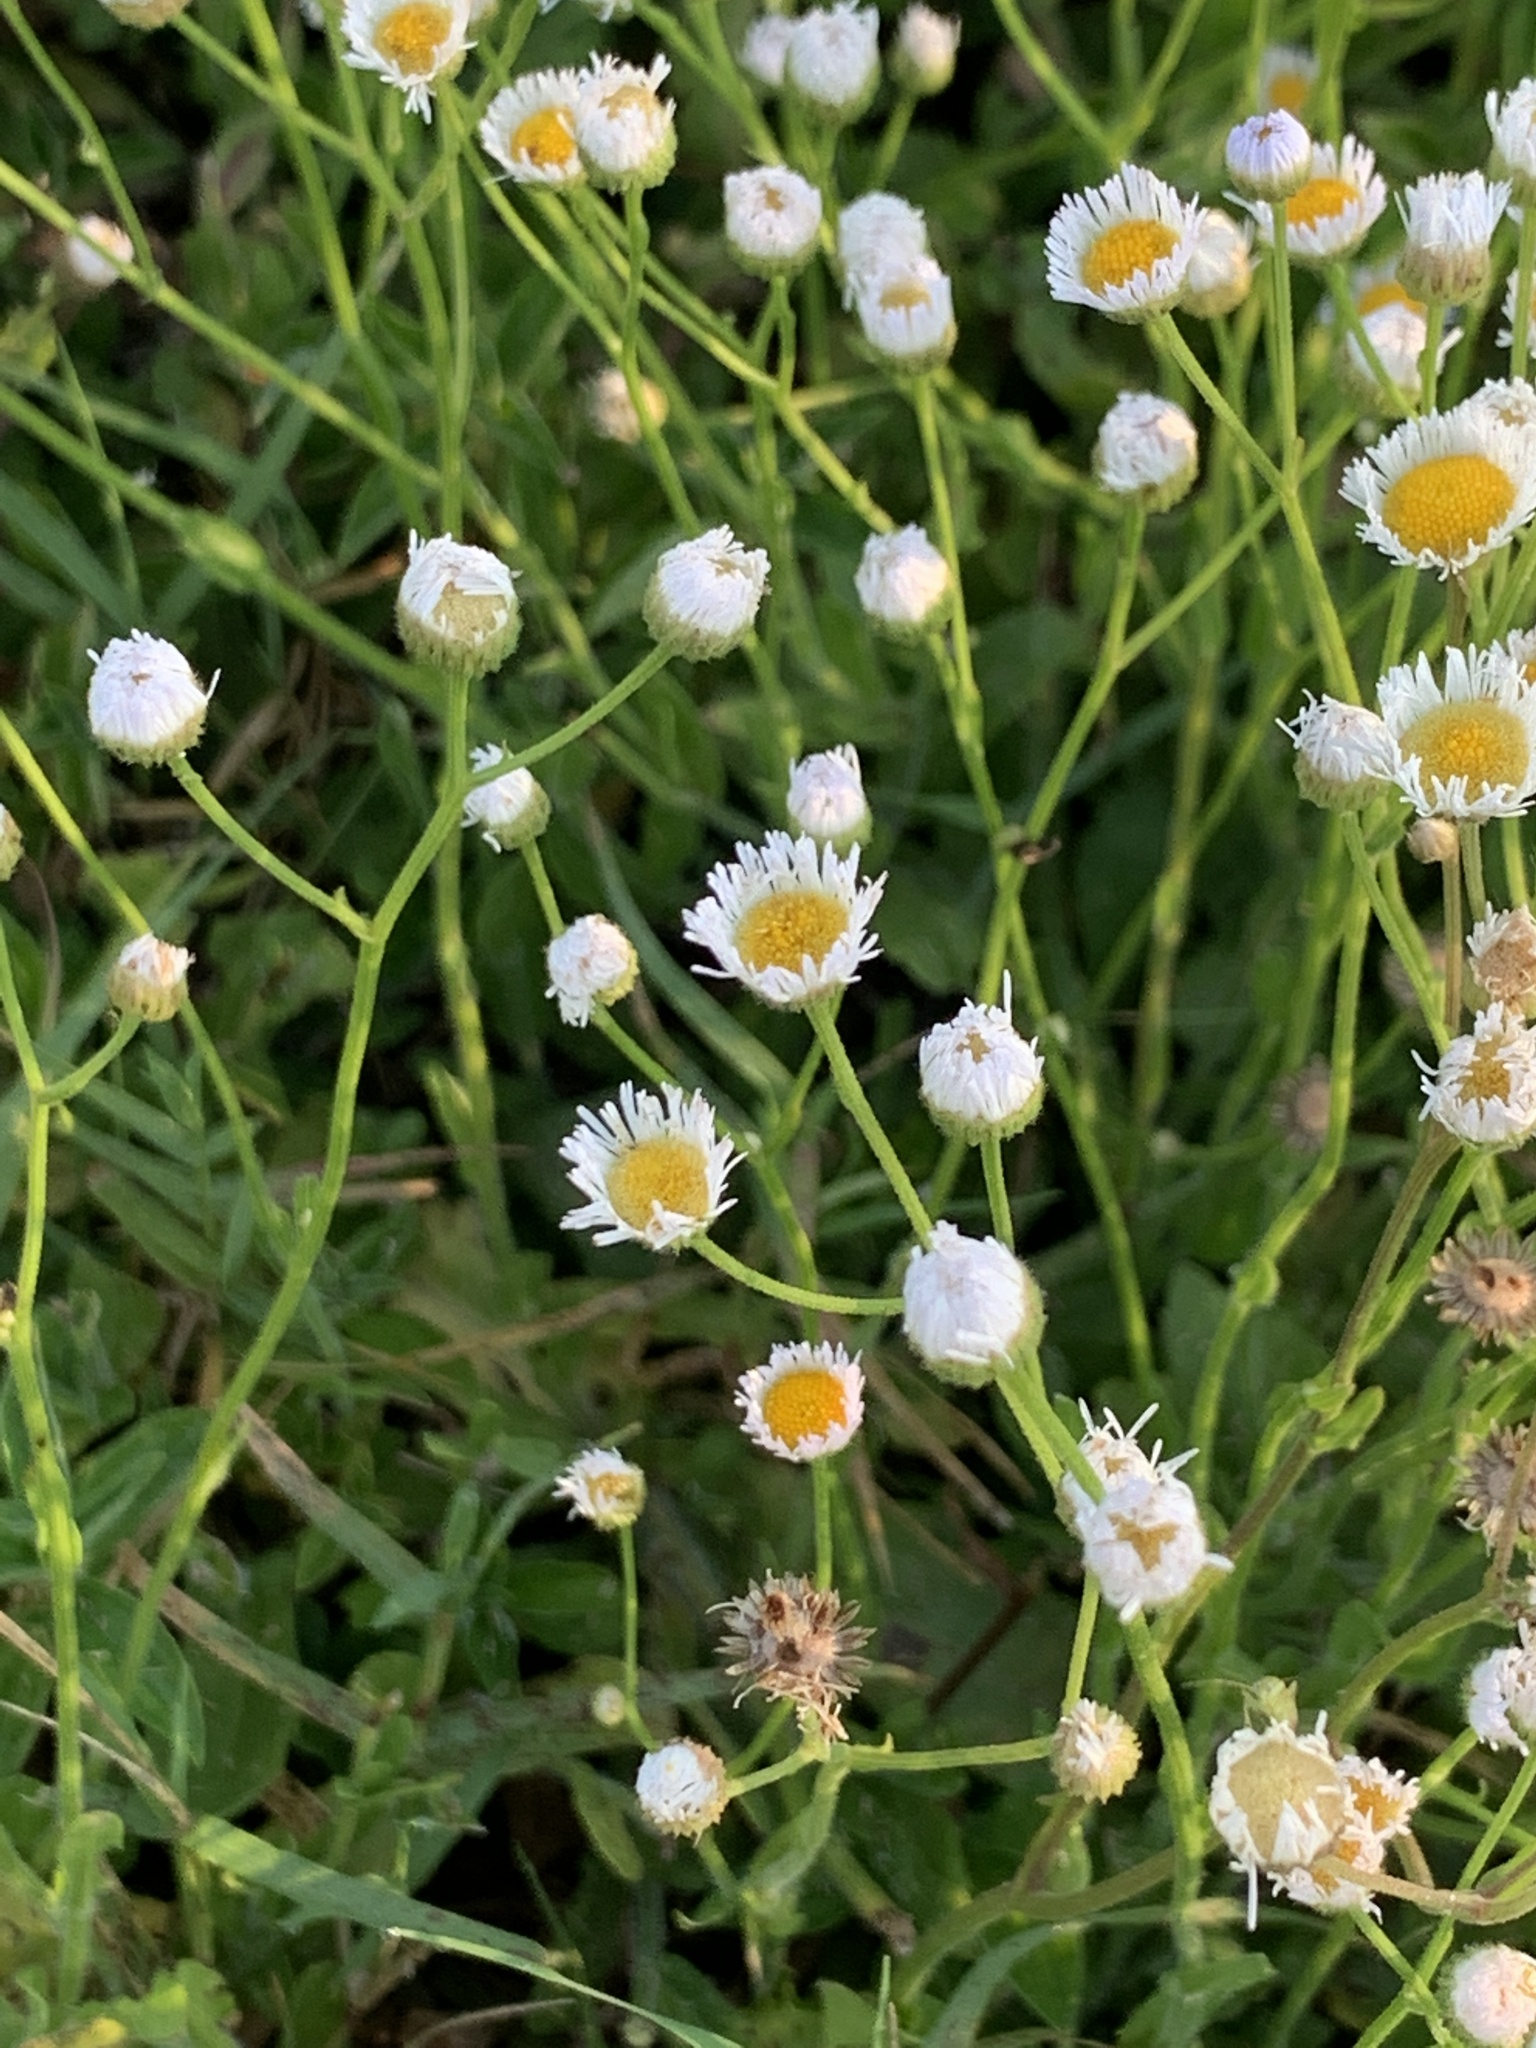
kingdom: Plantae
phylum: Tracheophyta
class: Magnoliopsida
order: Asterales
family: Asteraceae
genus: Erigeron
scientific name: Erigeron quercifolius
